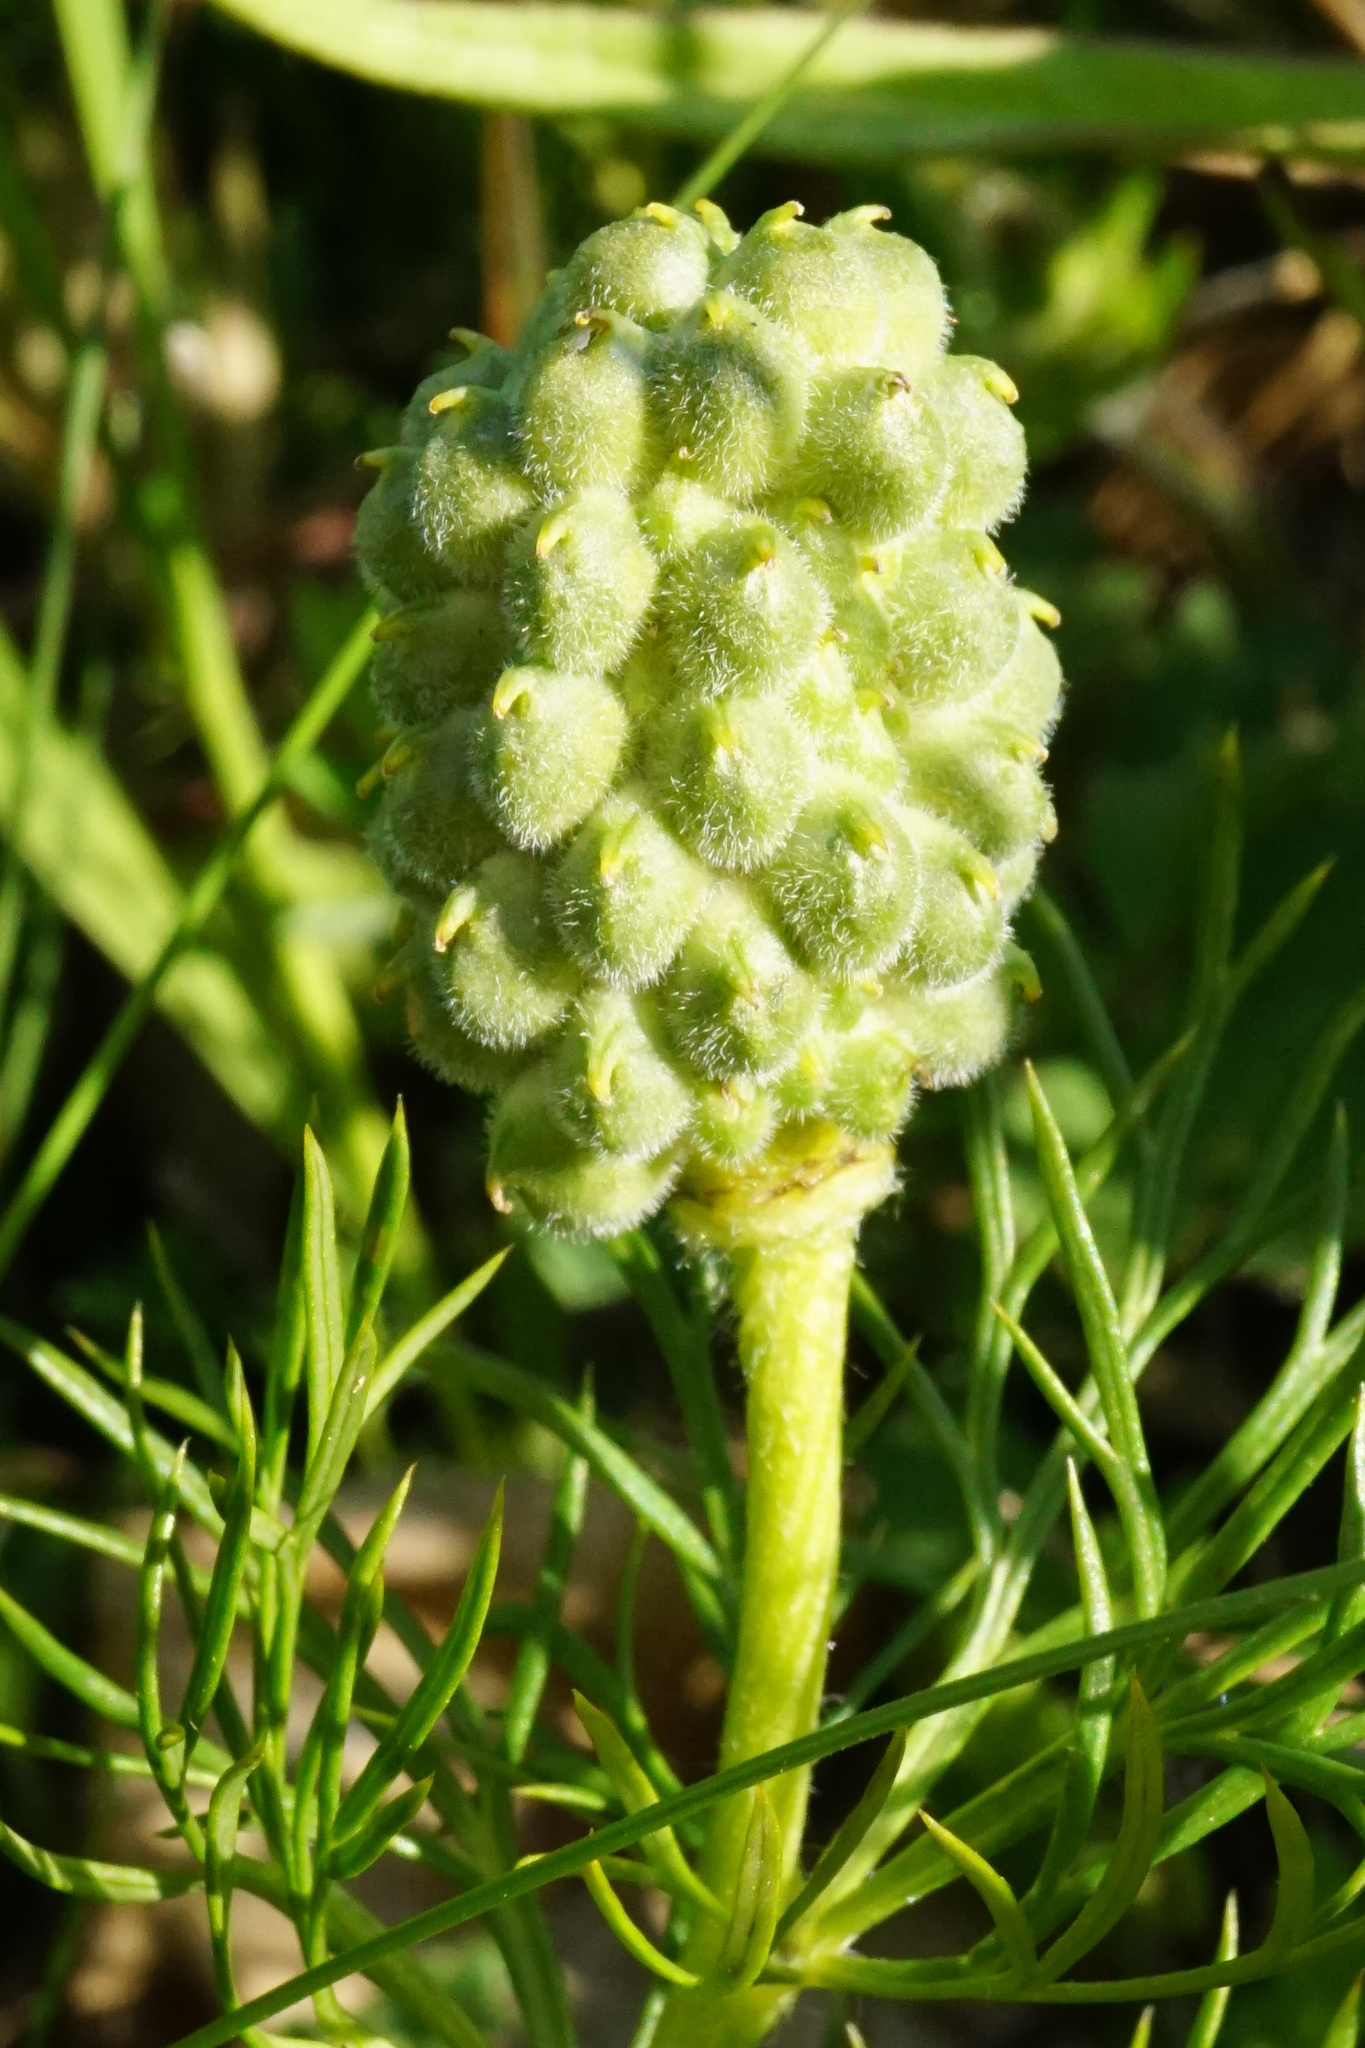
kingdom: Plantae
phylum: Tracheophyta
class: Magnoliopsida
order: Ranunculales
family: Ranunculaceae
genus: Adonis
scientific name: Adonis vernalis
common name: Yellow pheasants-eye
